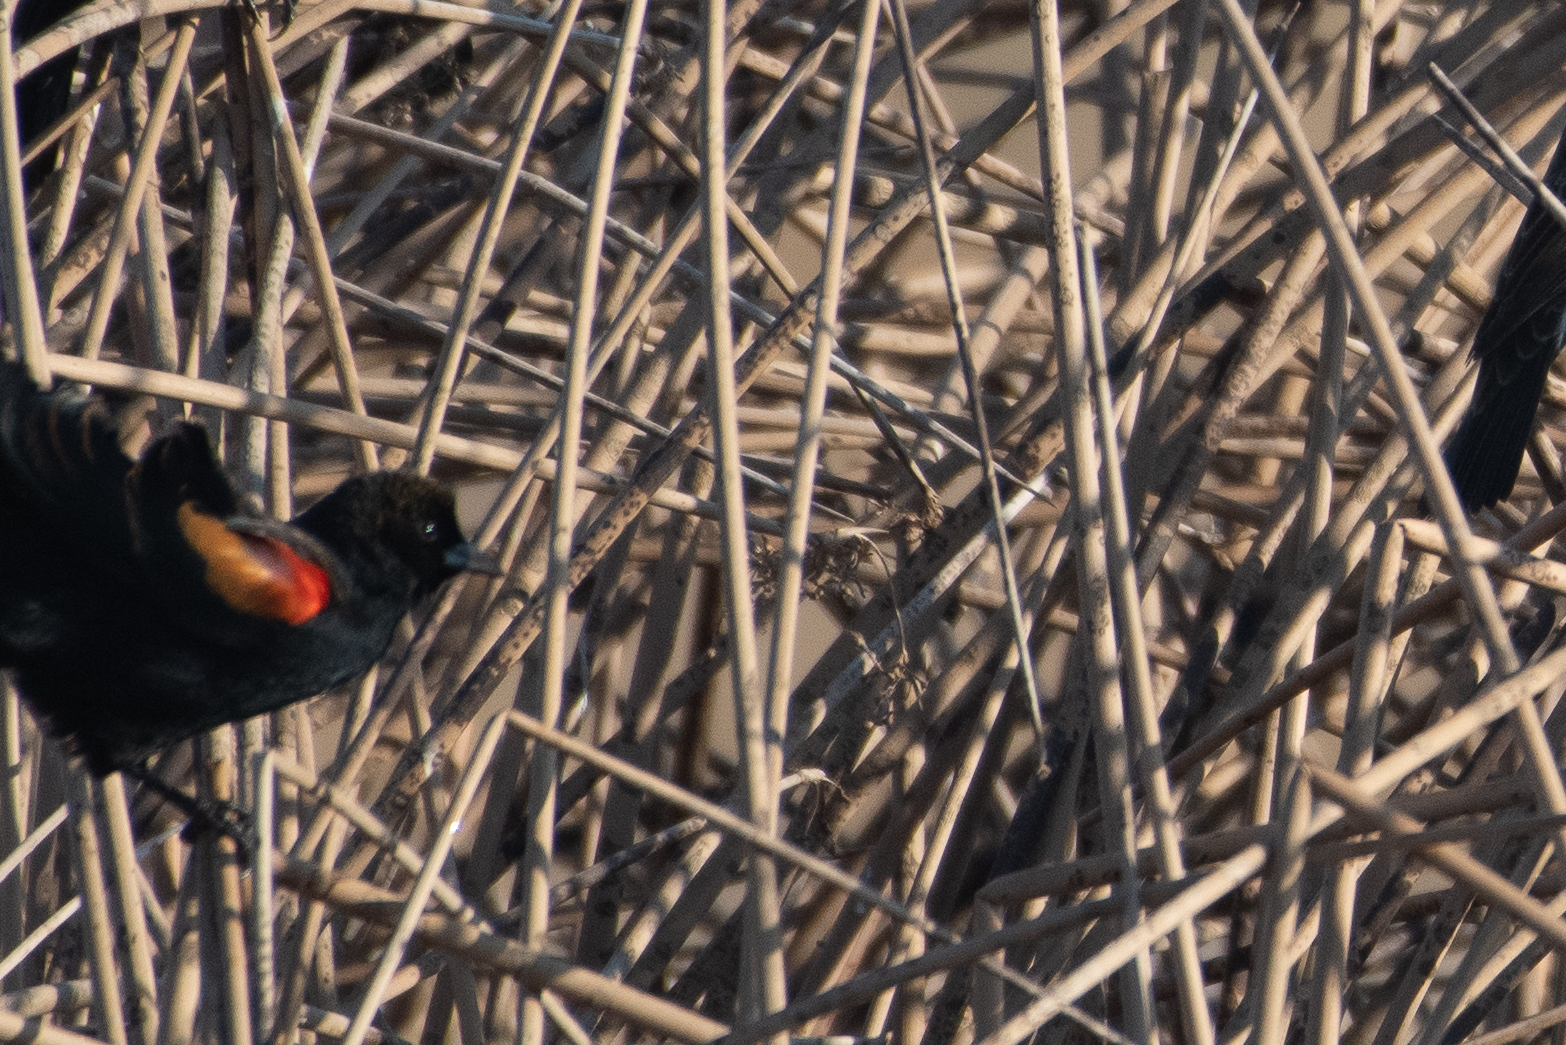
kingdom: Animalia
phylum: Chordata
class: Aves
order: Passeriformes
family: Icteridae
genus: Agelaius
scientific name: Agelaius phoeniceus
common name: Red-winged blackbird
